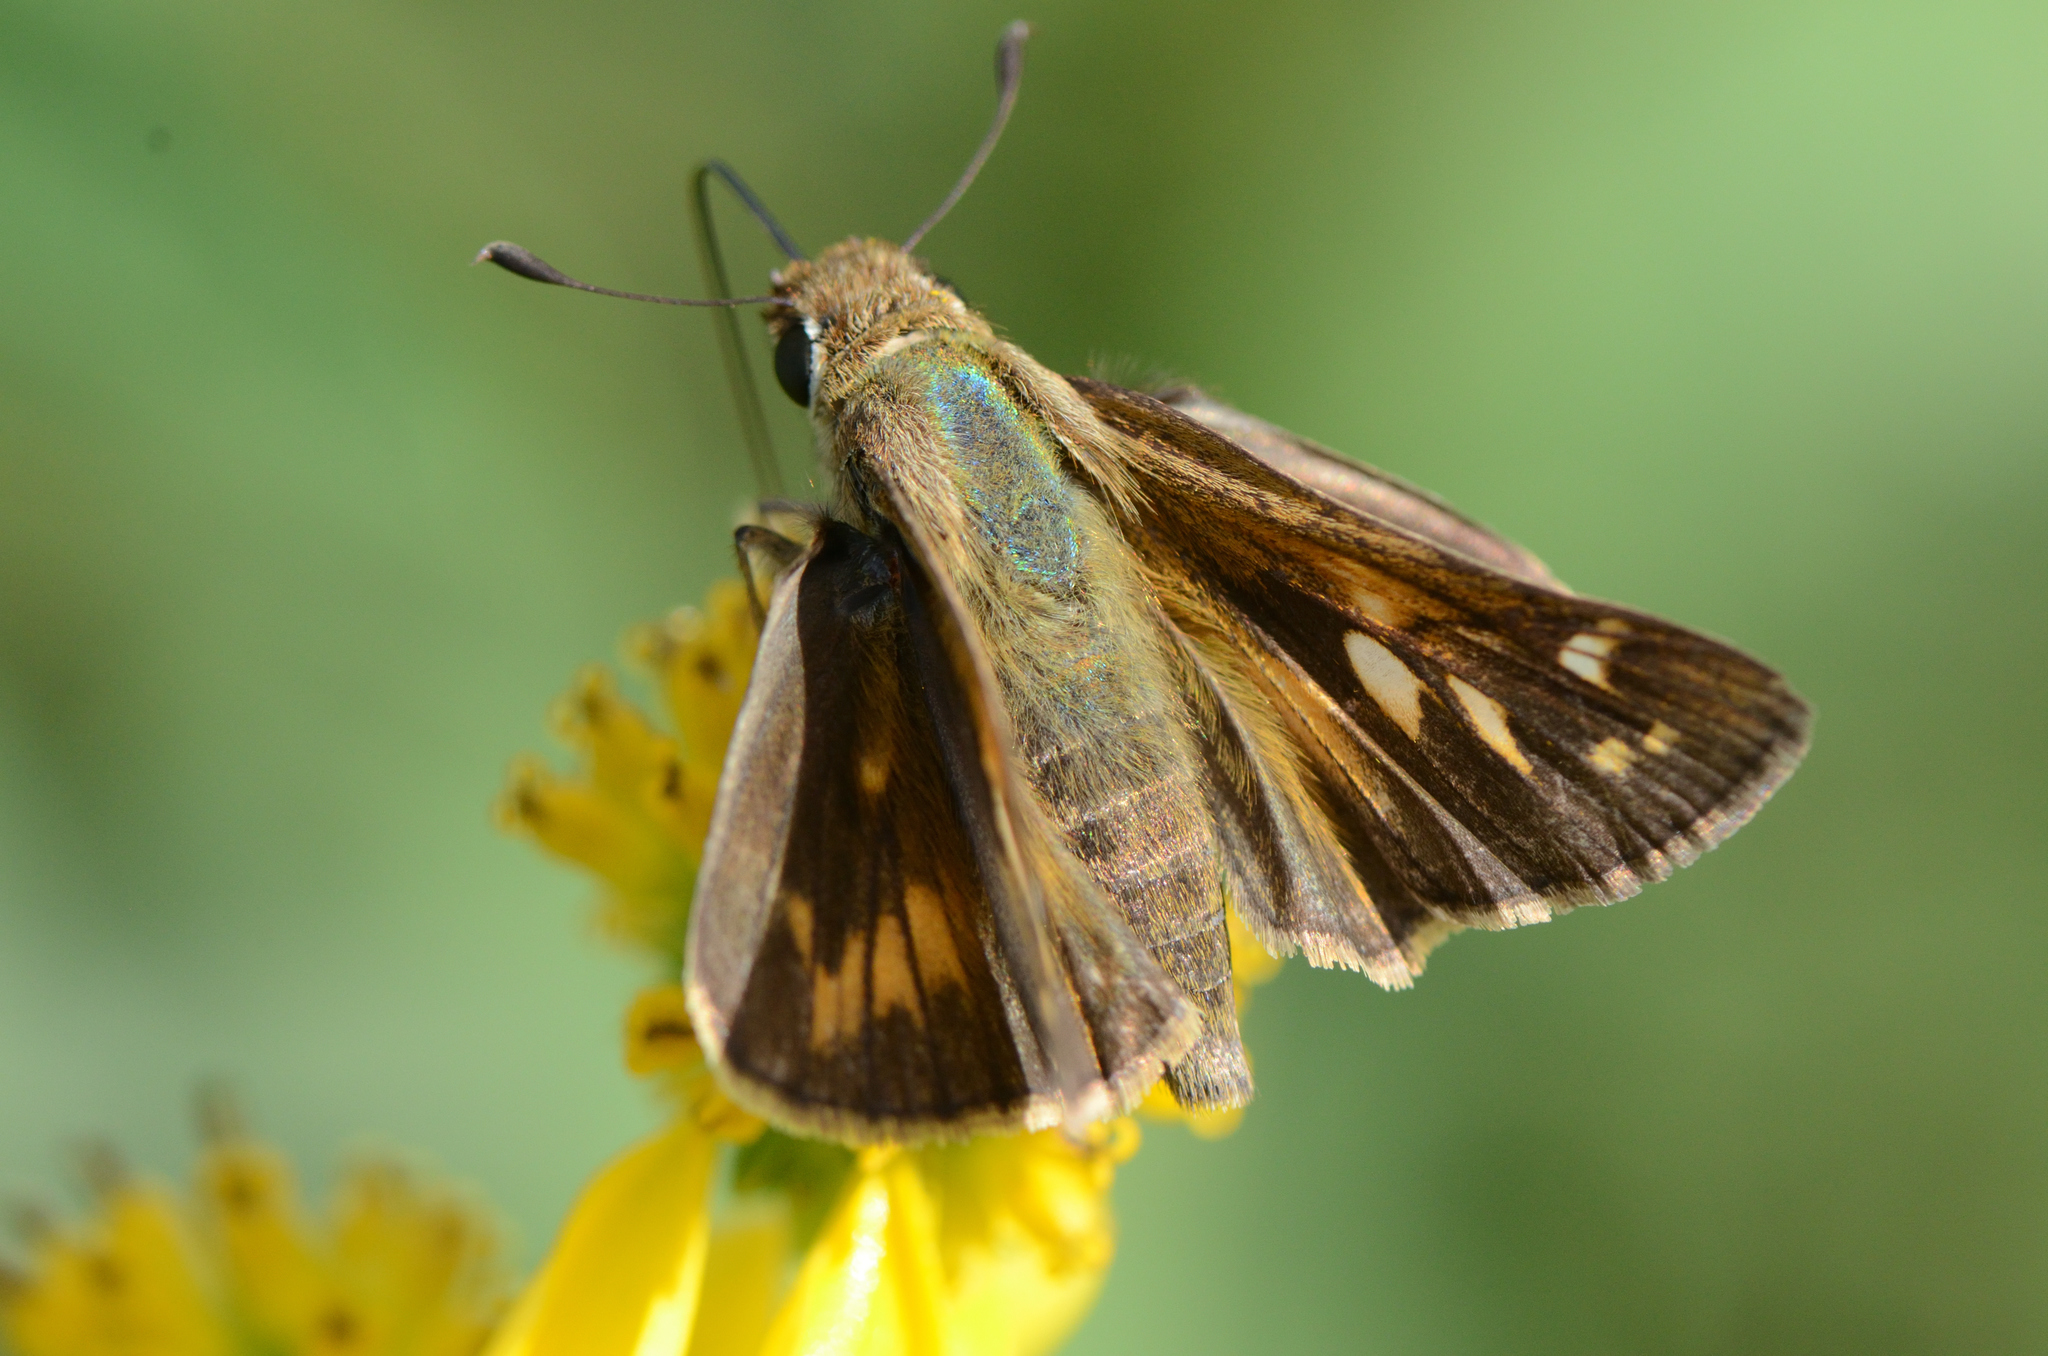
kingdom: Animalia
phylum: Arthropoda
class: Insecta
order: Lepidoptera
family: Hesperiidae
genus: Atalopedes
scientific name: Atalopedes
